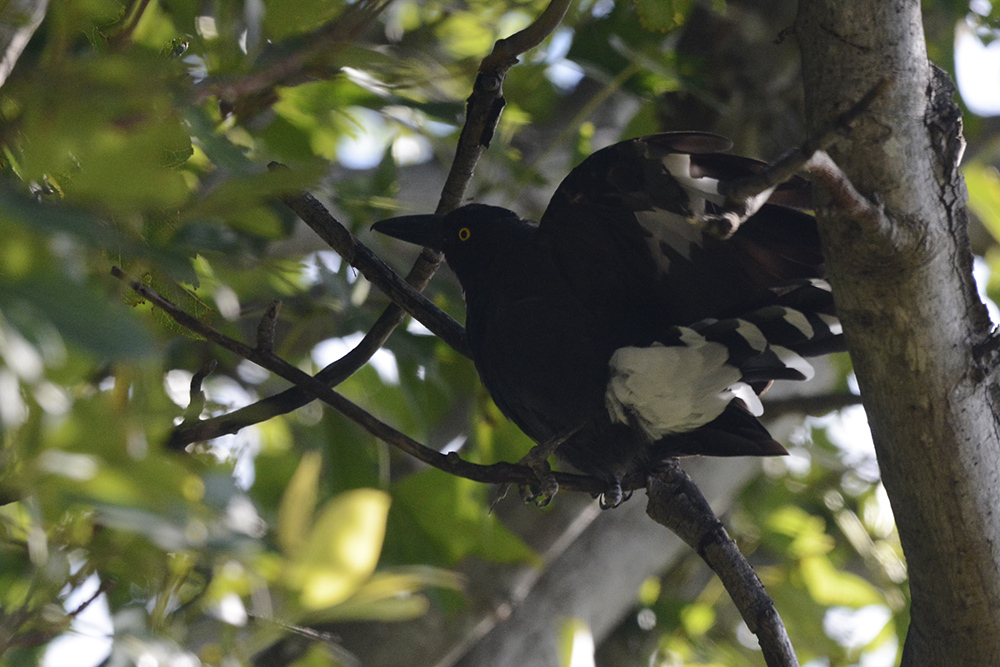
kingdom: Animalia
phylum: Chordata
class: Aves
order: Passeriformes
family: Cracticidae
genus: Strepera
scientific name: Strepera graculina
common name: Pied currawong
